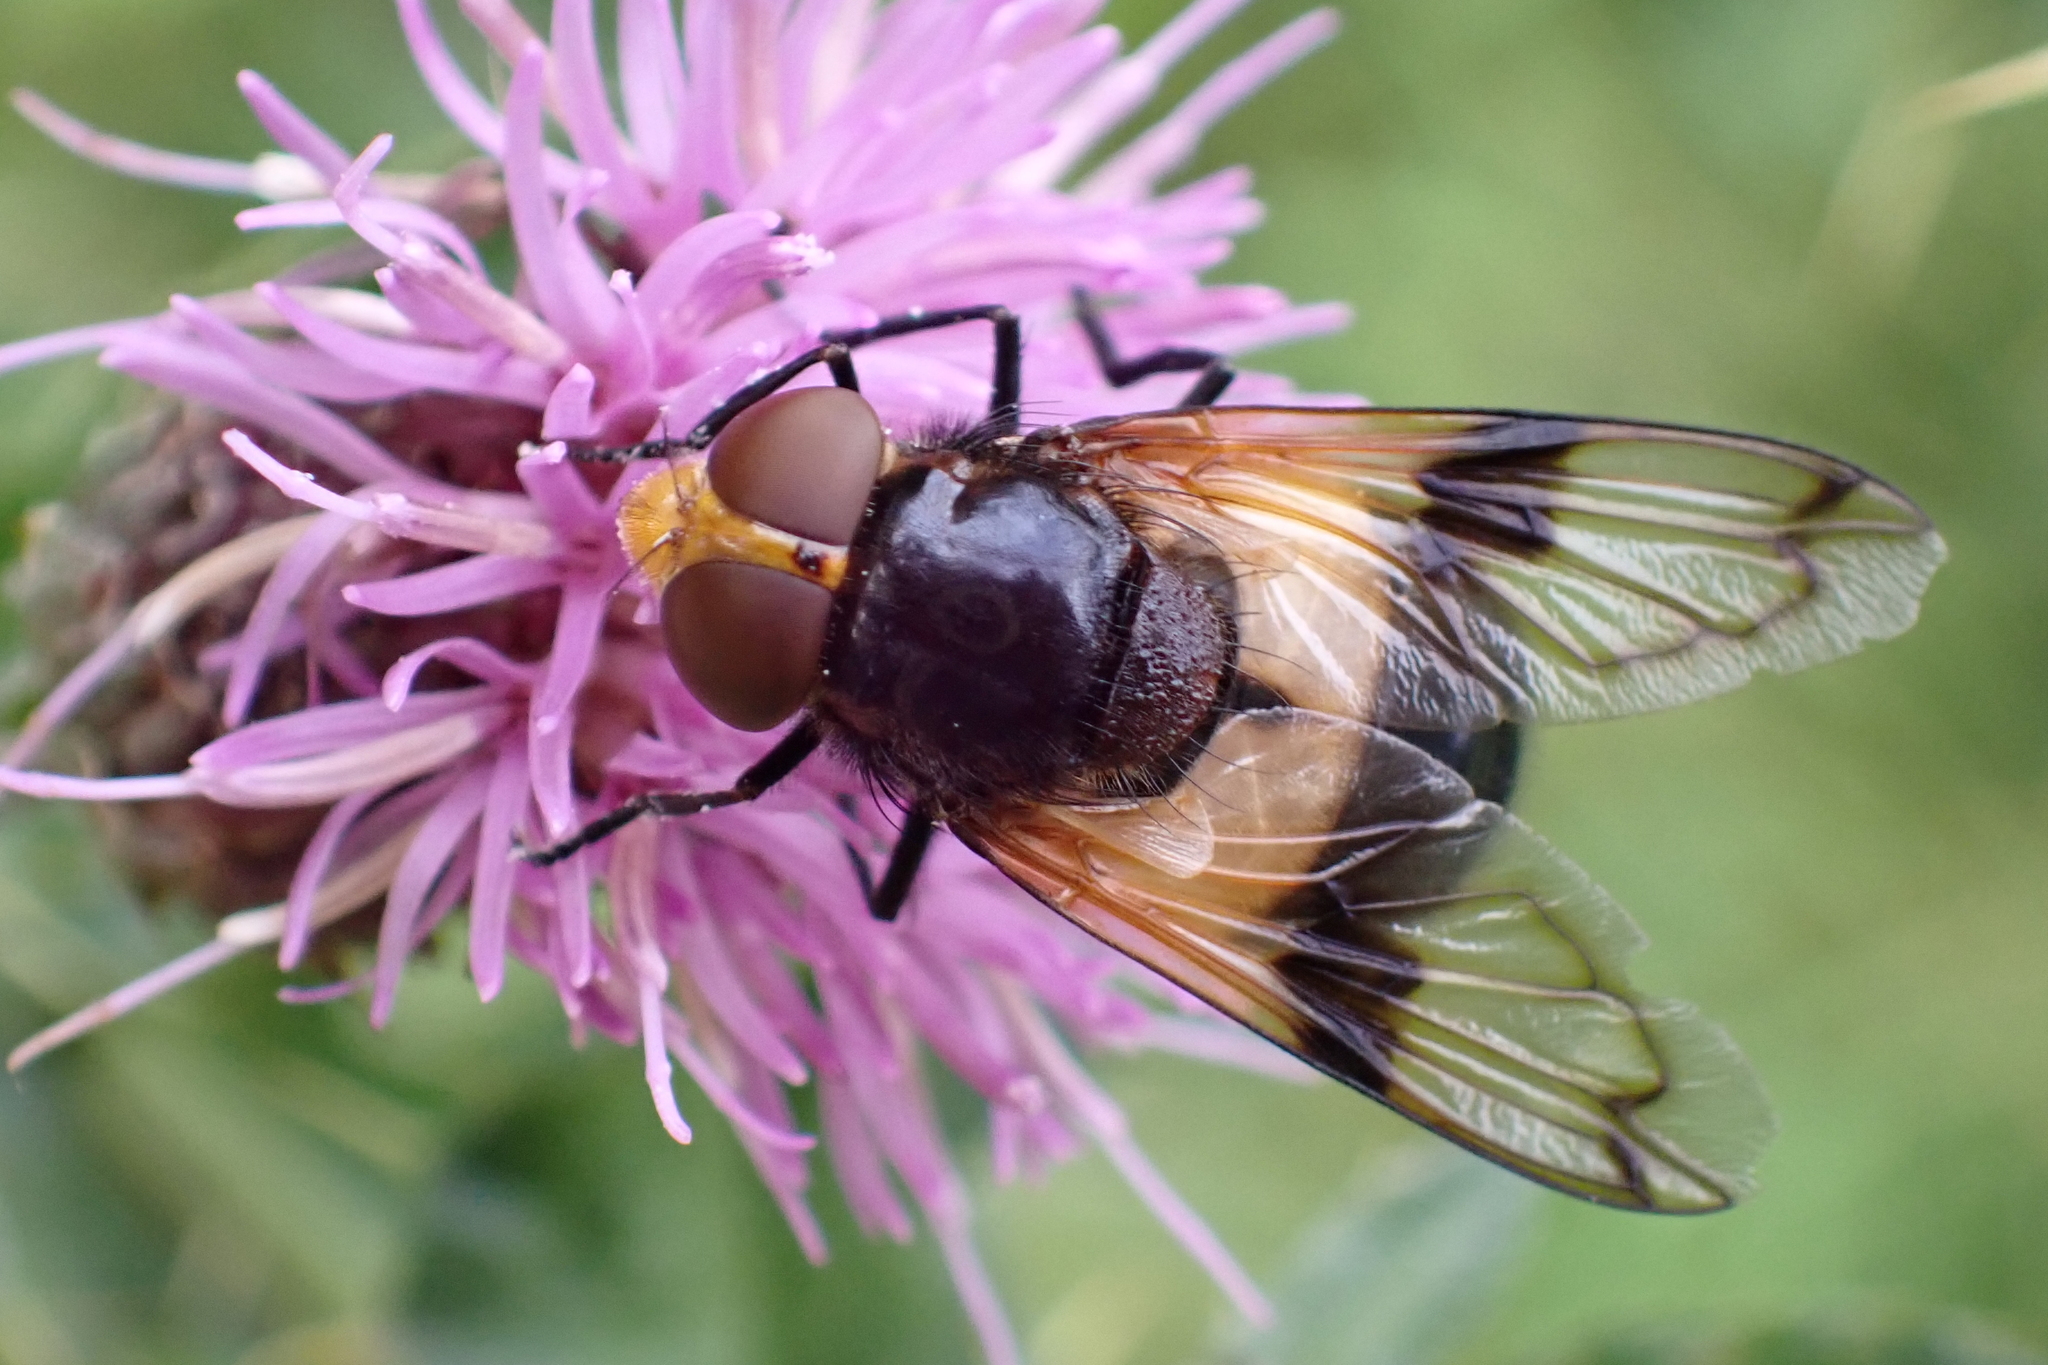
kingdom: Animalia
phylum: Arthropoda
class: Insecta
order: Diptera
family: Syrphidae
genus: Volucella
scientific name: Volucella pellucens
